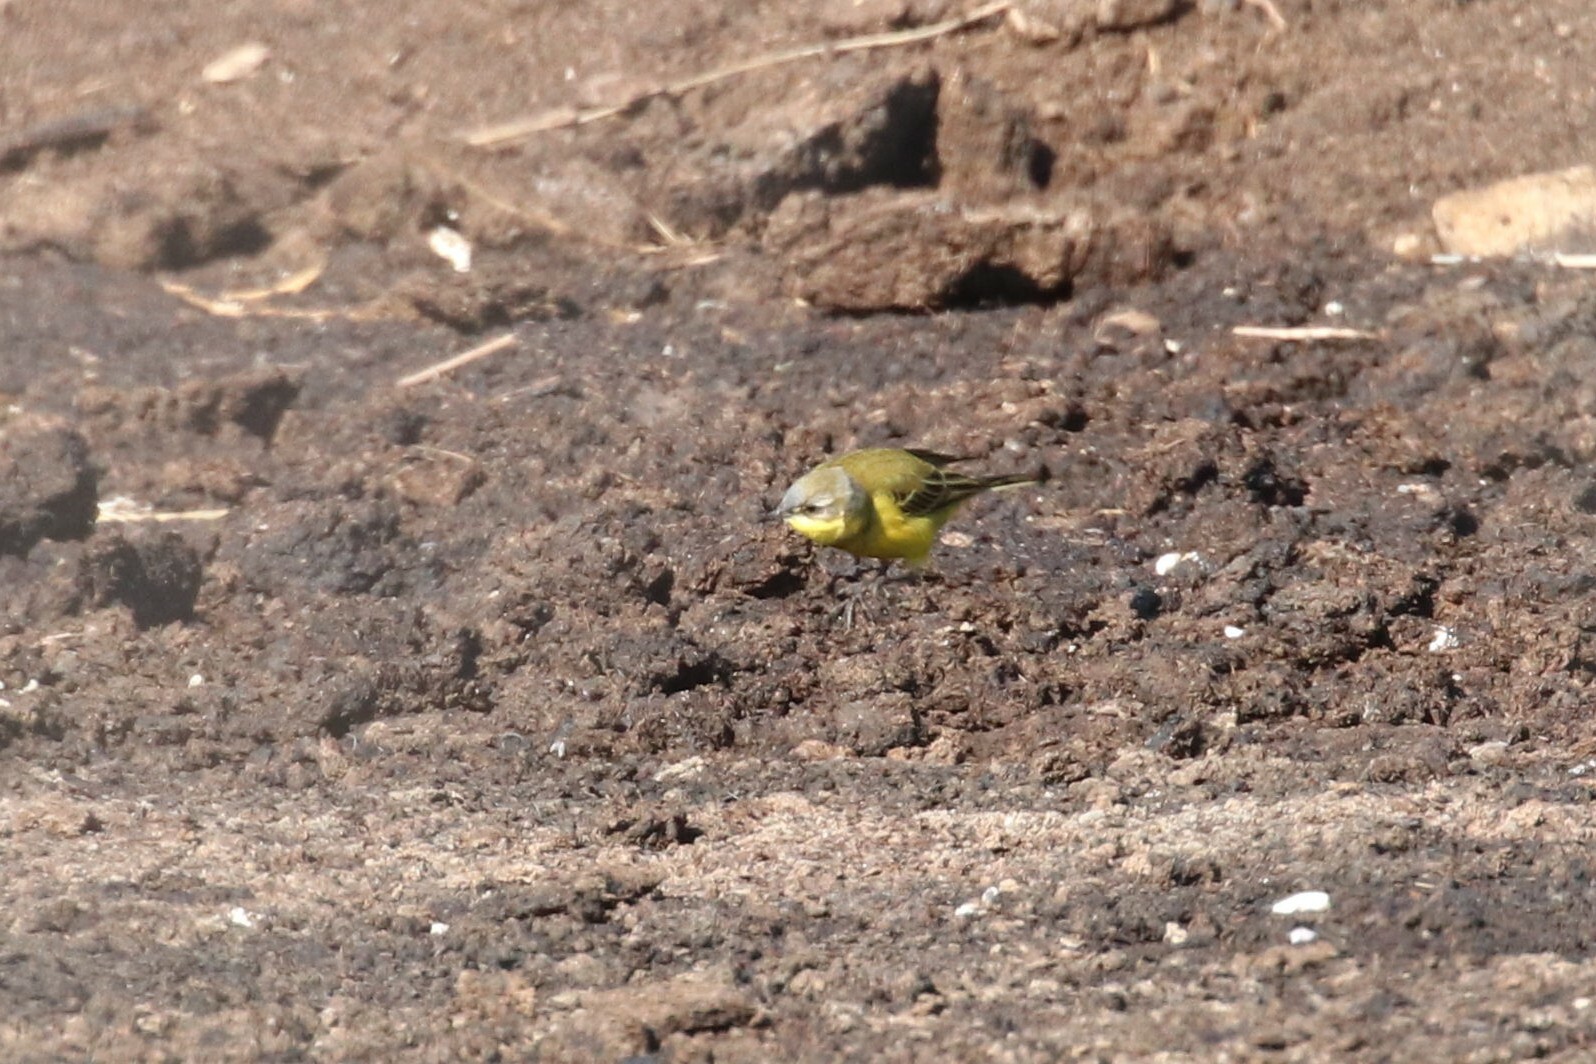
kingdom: Animalia
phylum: Chordata
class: Aves
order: Passeriformes
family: Motacillidae
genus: Motacilla
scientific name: Motacilla flava
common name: Western yellow wagtail
